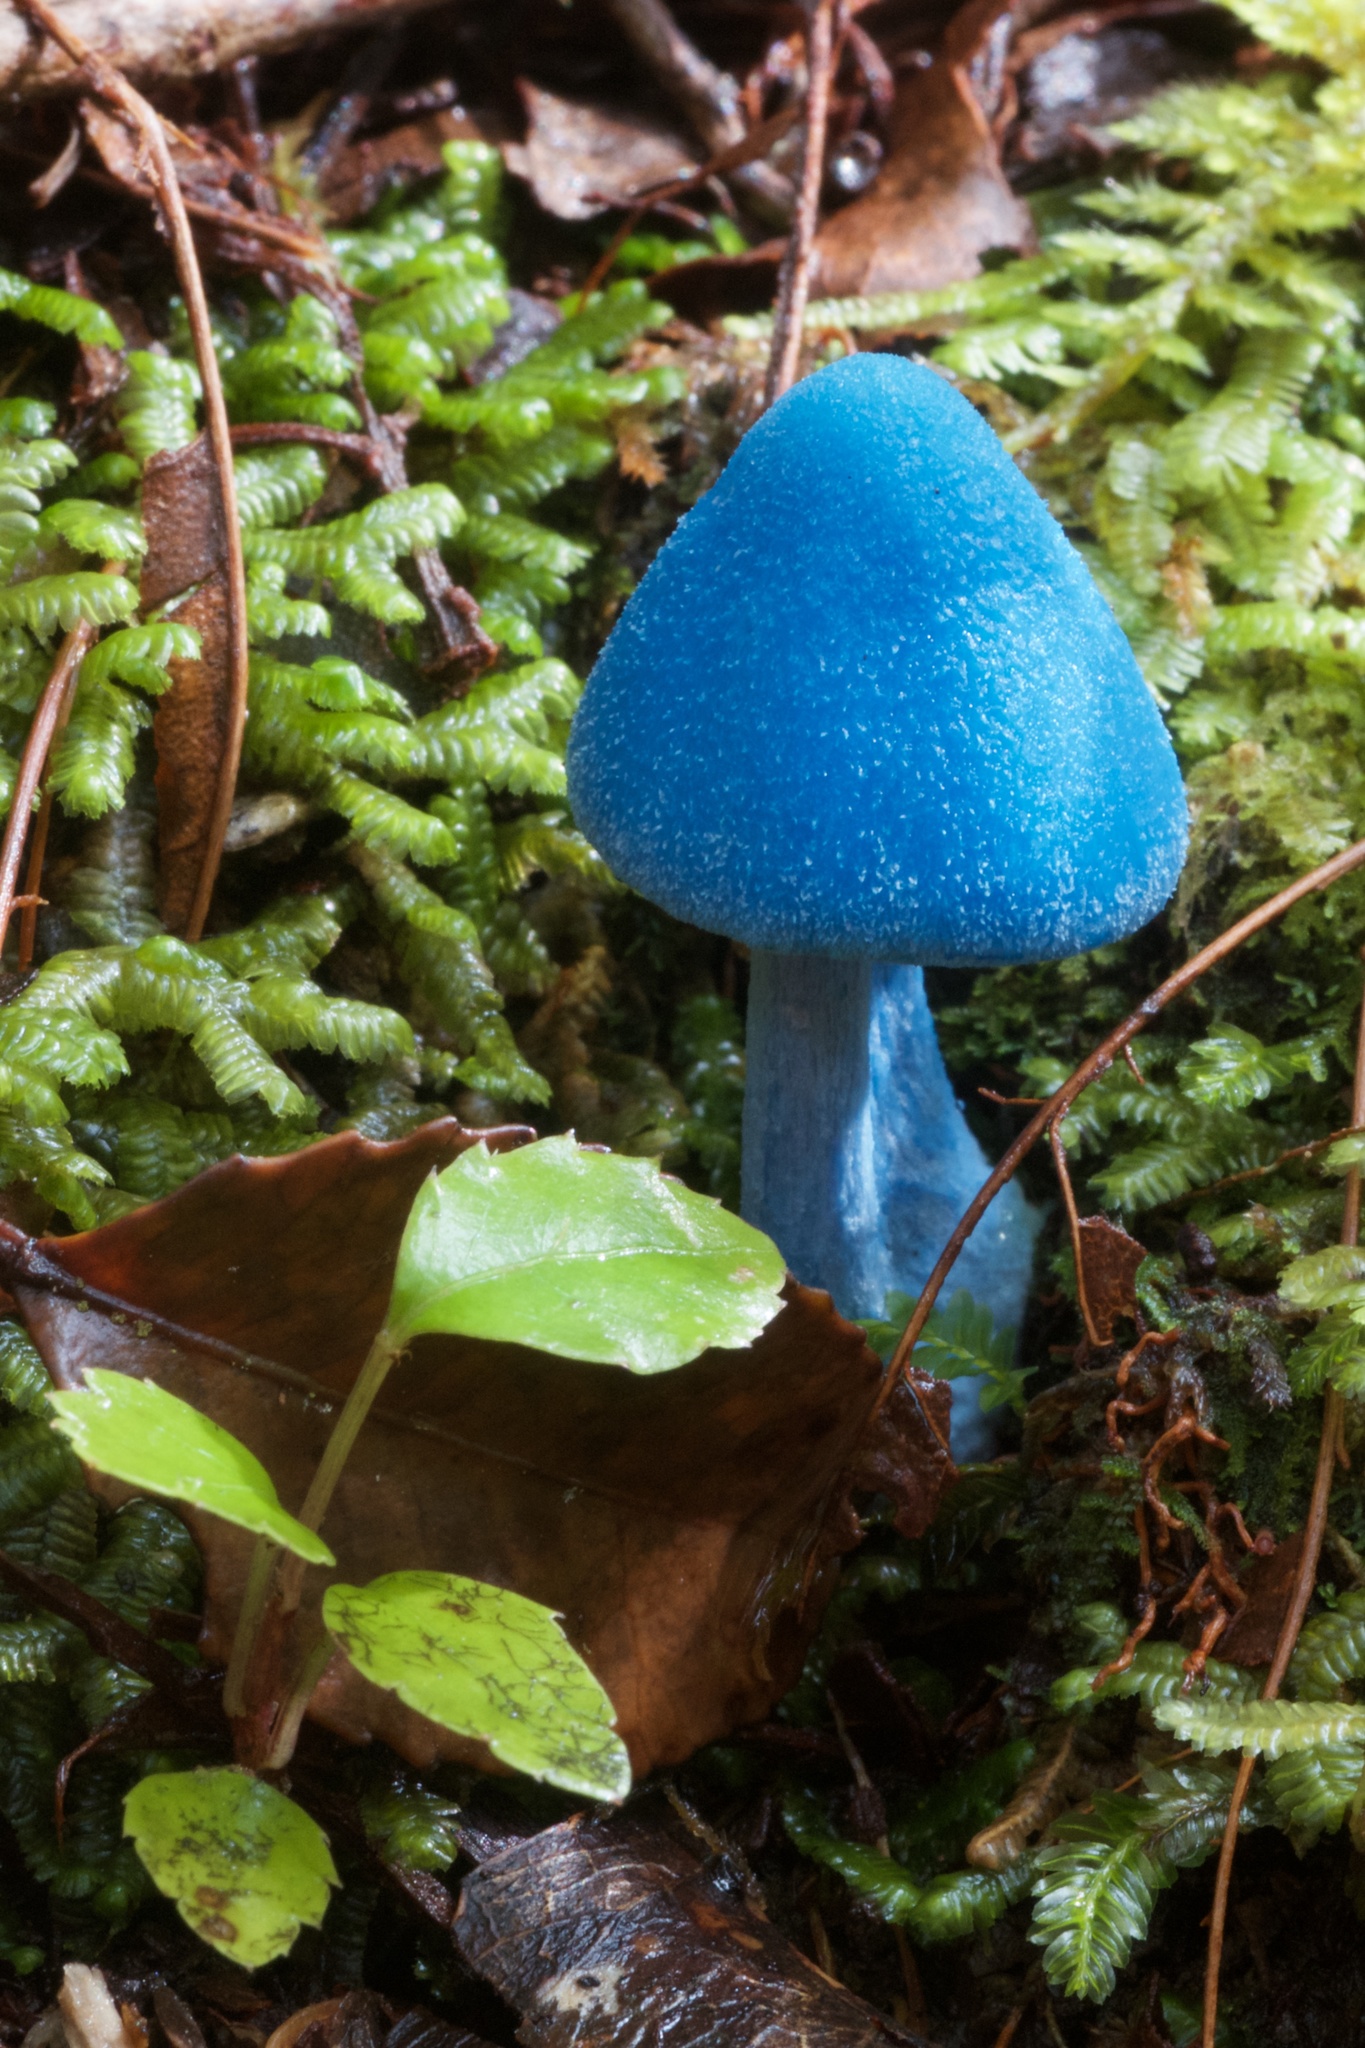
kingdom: Fungi
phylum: Basidiomycota
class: Agaricomycetes
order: Agaricales
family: Entolomataceae
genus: Entoloma
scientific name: Entoloma hochstetteri
